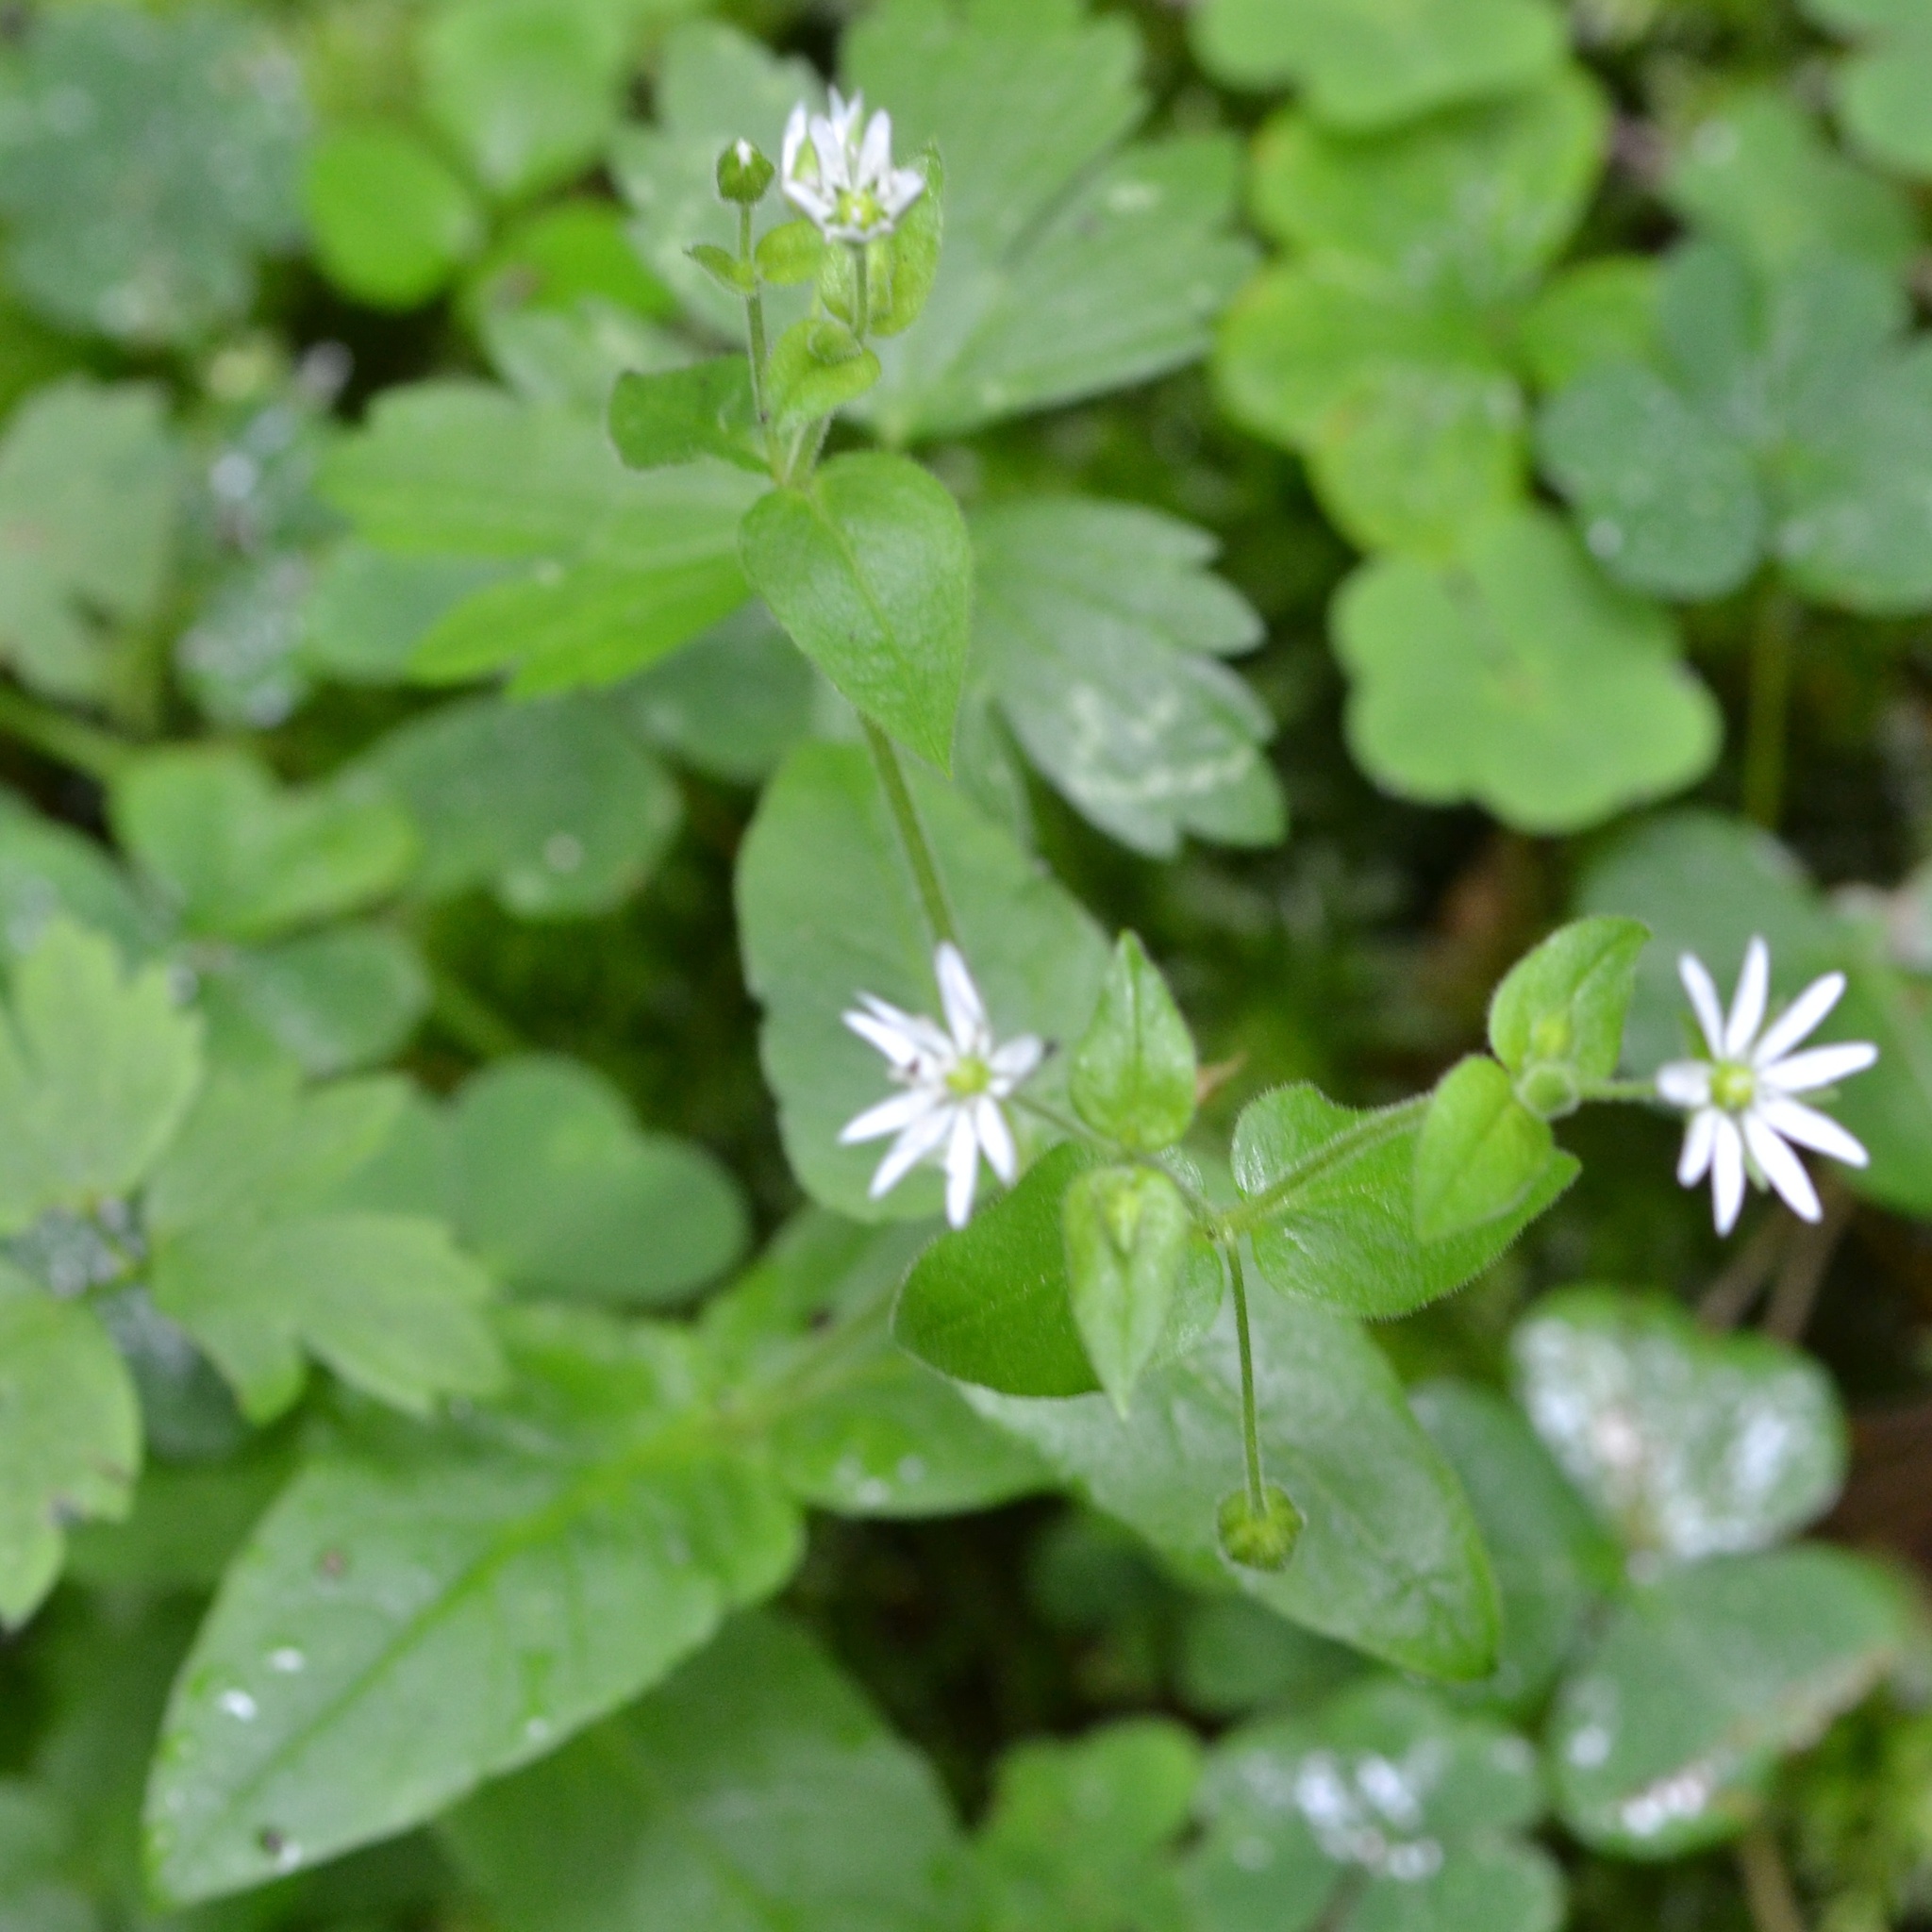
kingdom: Plantae
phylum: Tracheophyta
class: Magnoliopsida
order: Caryophyllales
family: Caryophyllaceae
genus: Stellaria
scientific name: Stellaria aquatica
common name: Water chickweed
